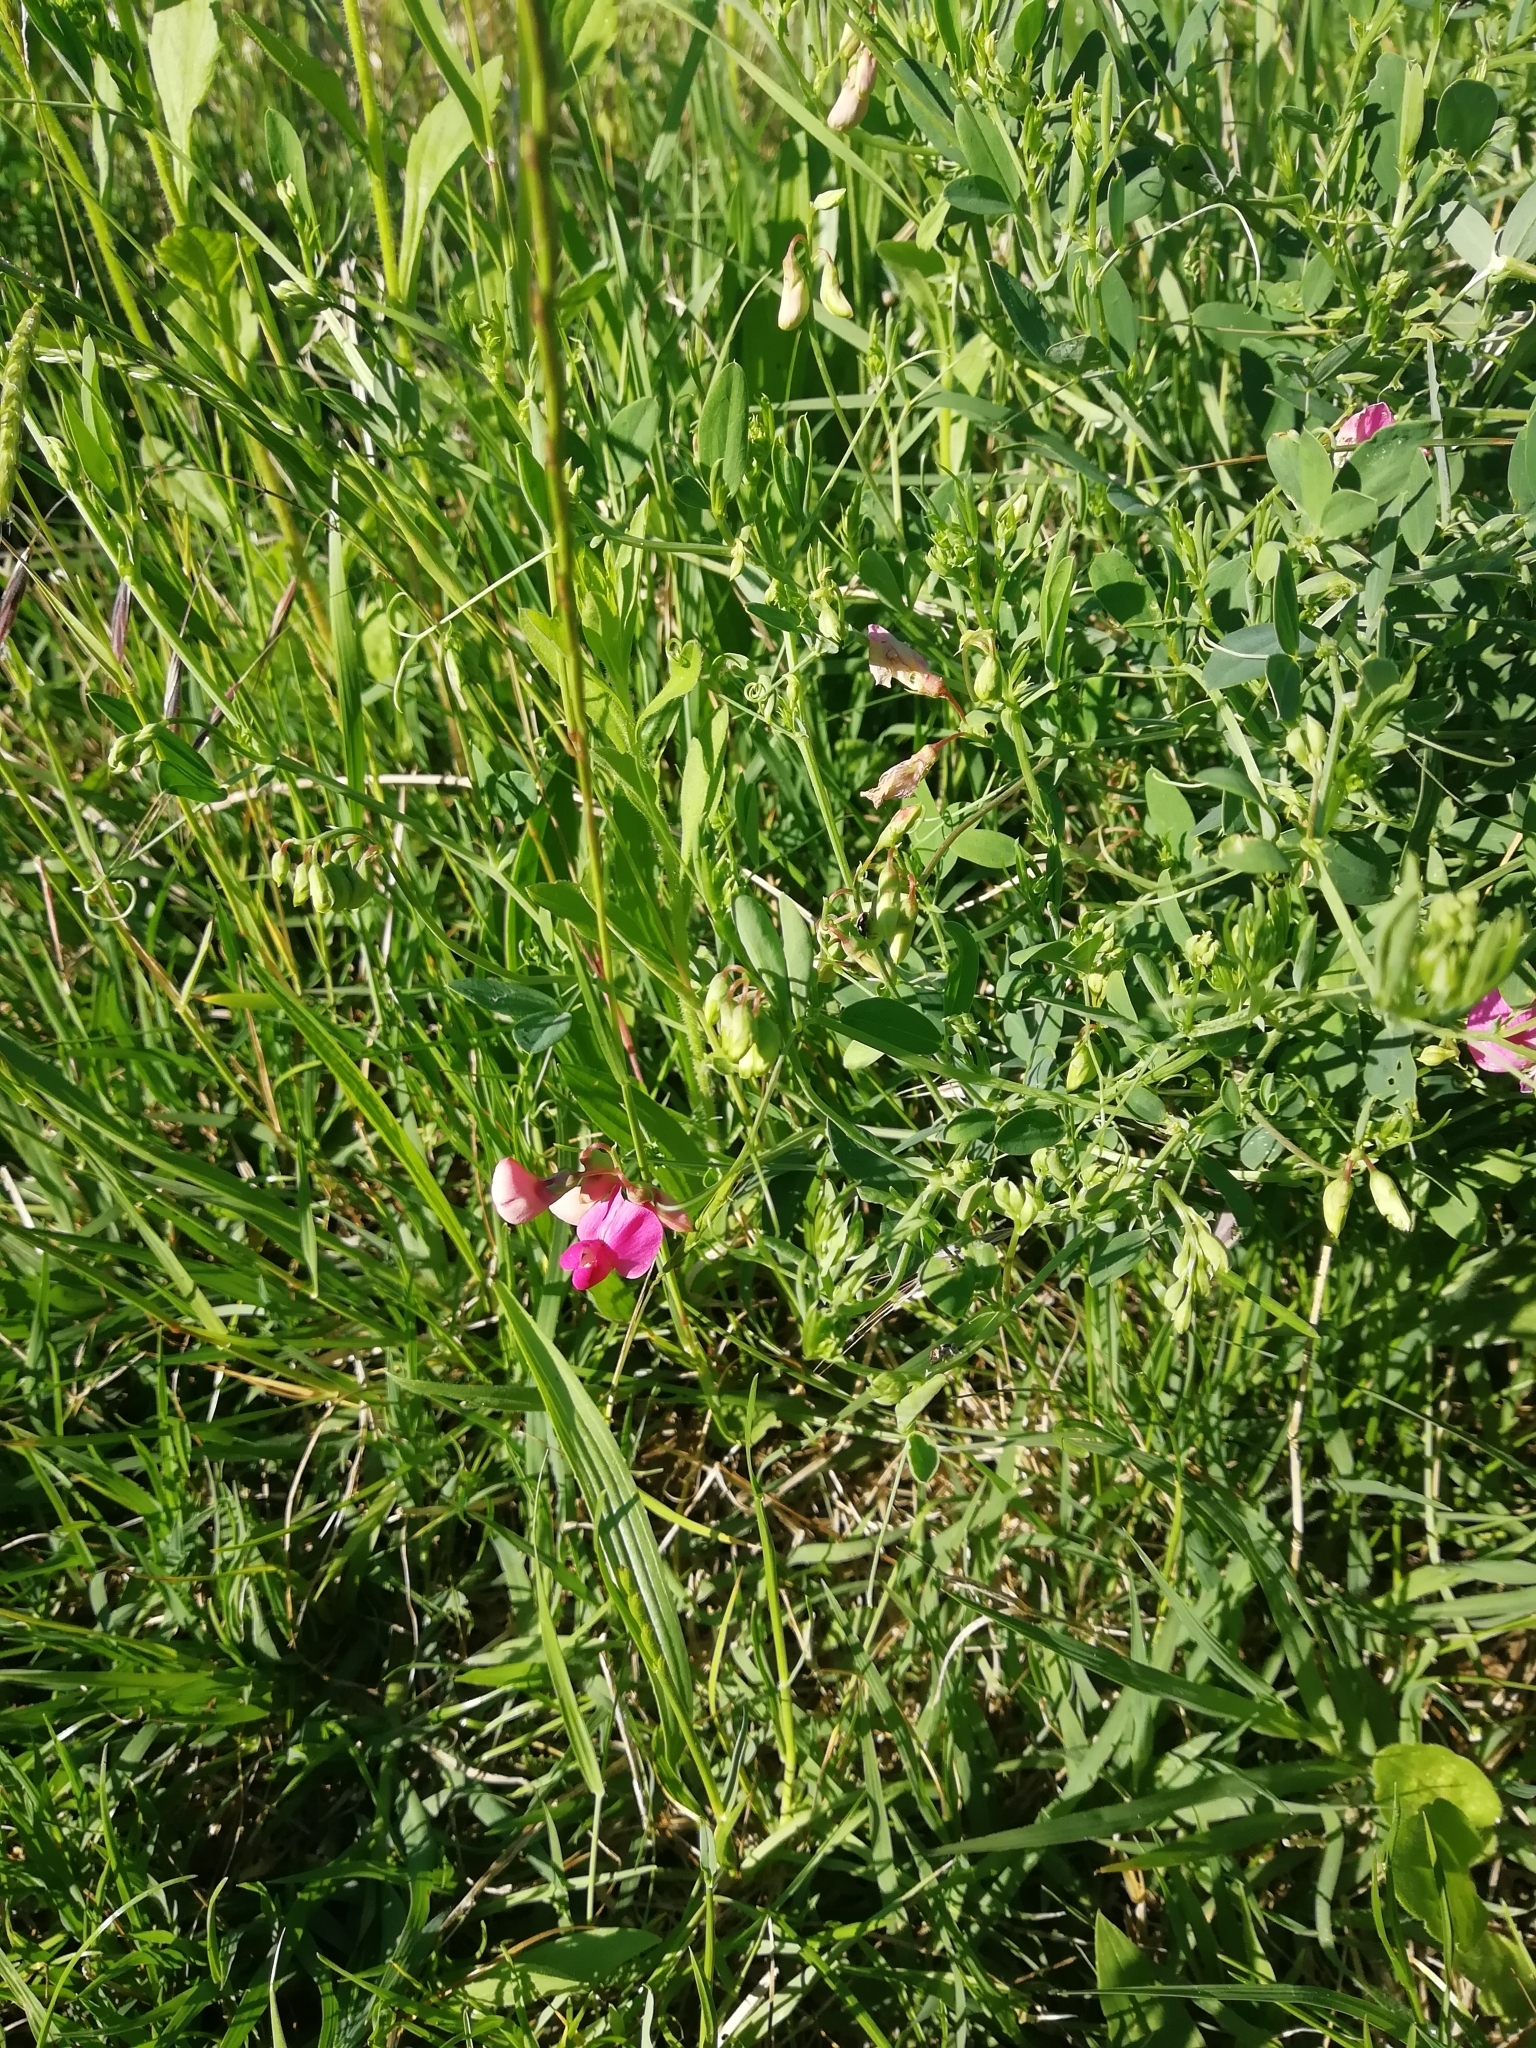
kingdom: Plantae
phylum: Tracheophyta
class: Magnoliopsida
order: Fabales
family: Fabaceae
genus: Lathyrus
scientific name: Lathyrus tuberosus
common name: Tuberous pea
